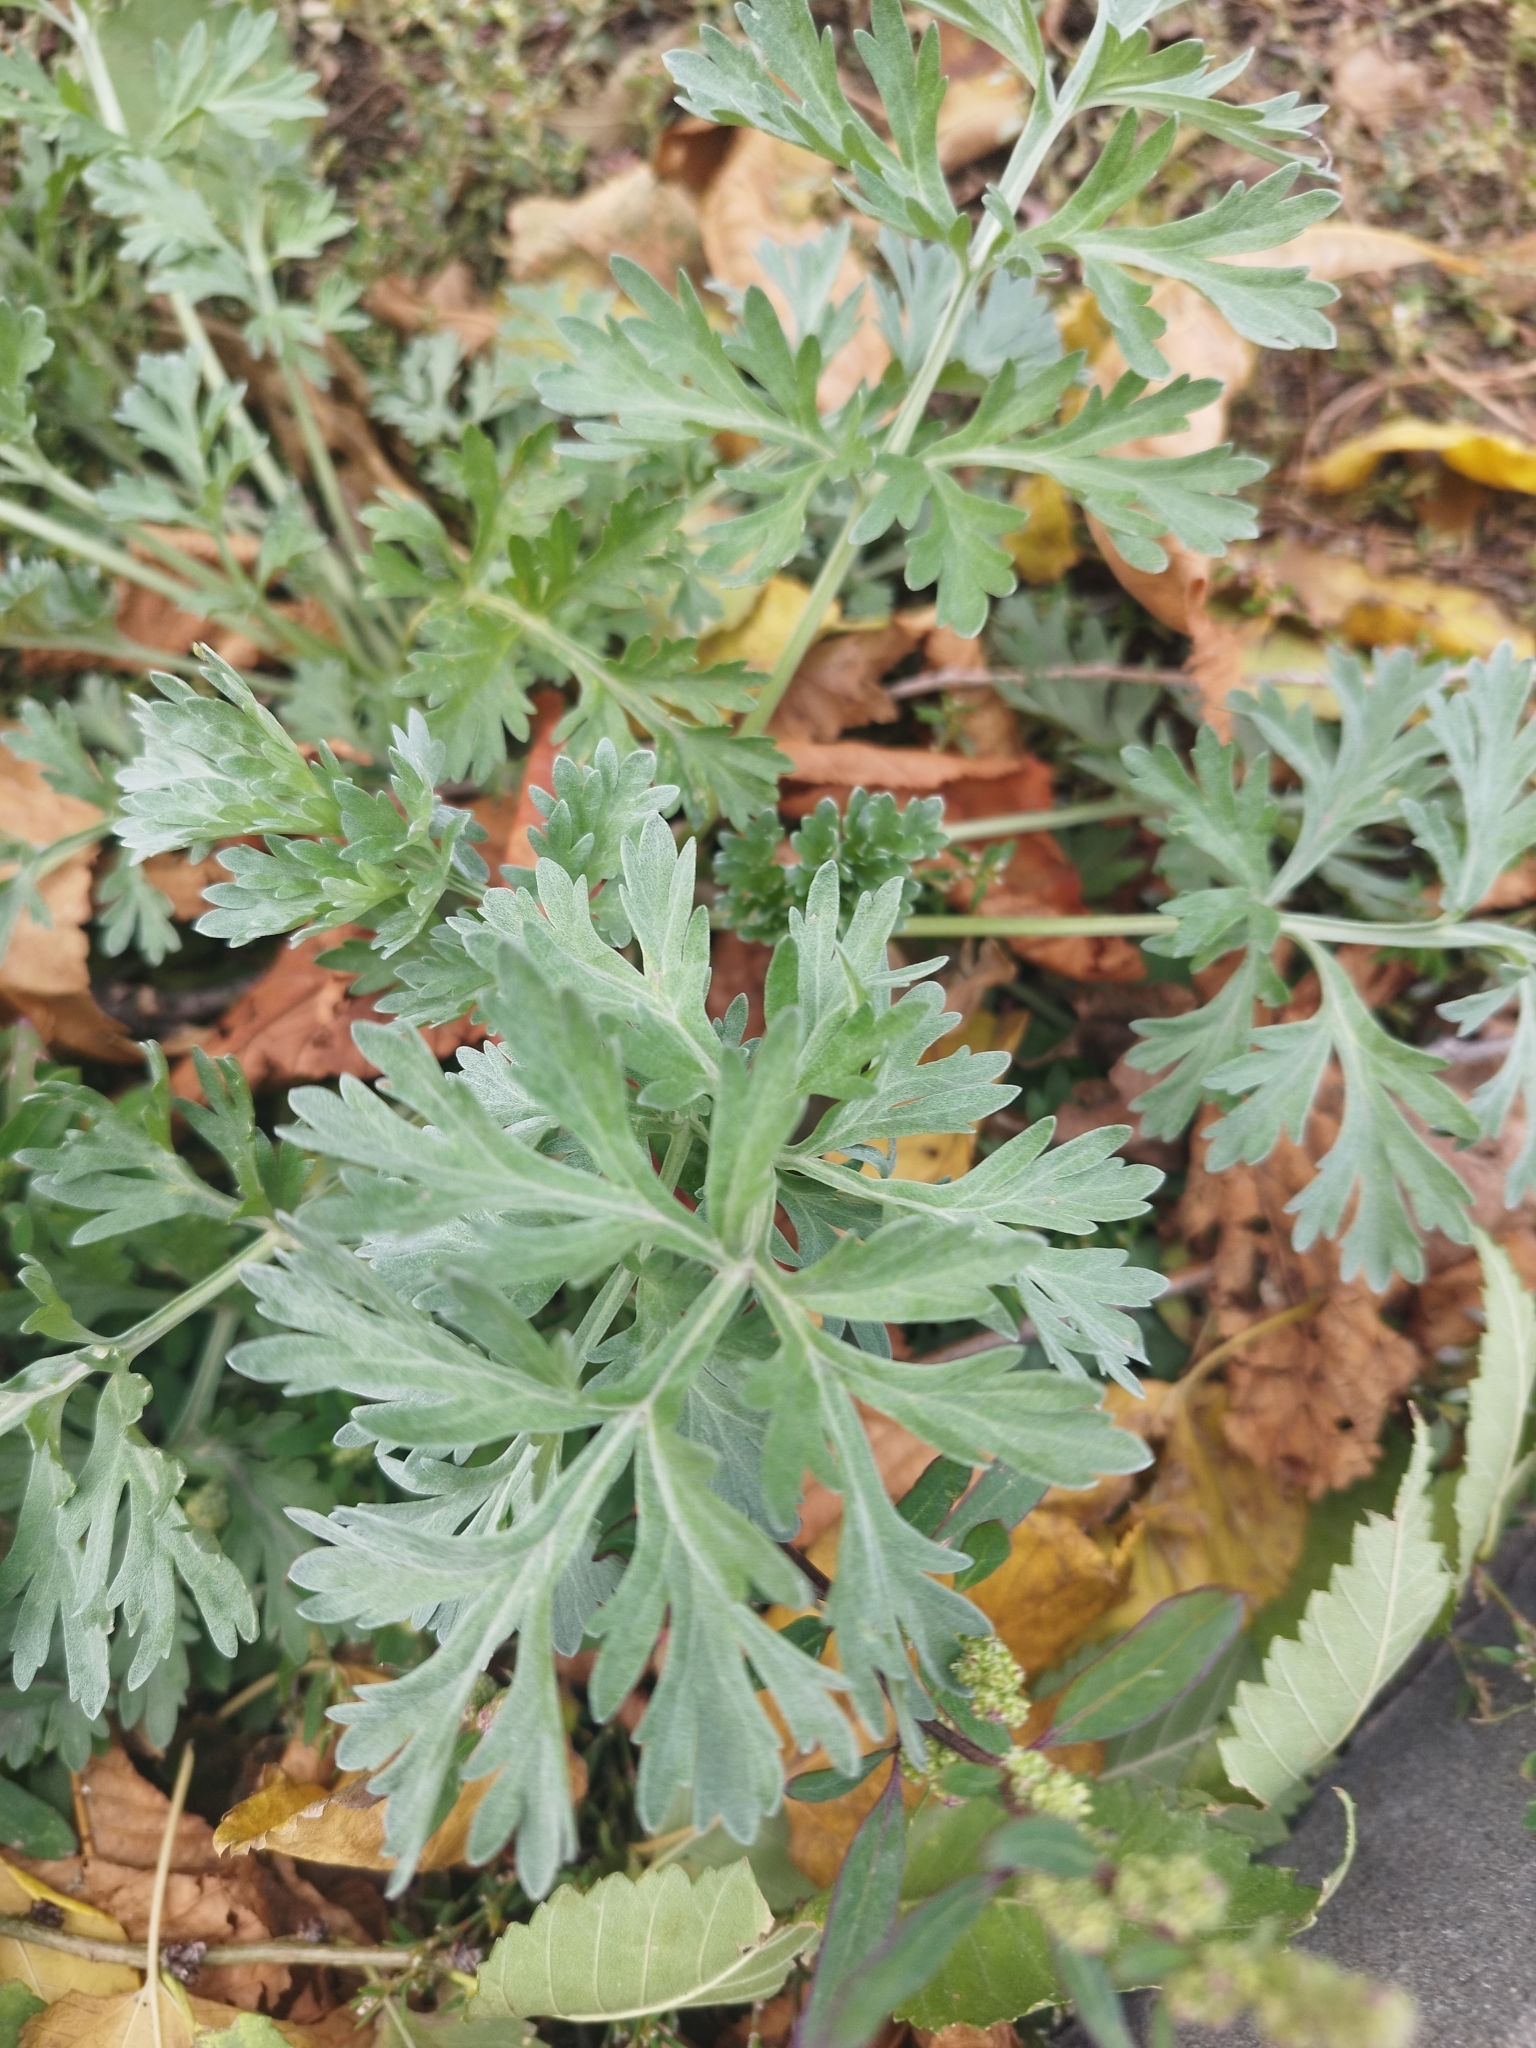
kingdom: Plantae
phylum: Tracheophyta
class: Magnoliopsida
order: Asterales
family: Asteraceae
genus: Artemisia
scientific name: Artemisia absinthium
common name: Wormwood
